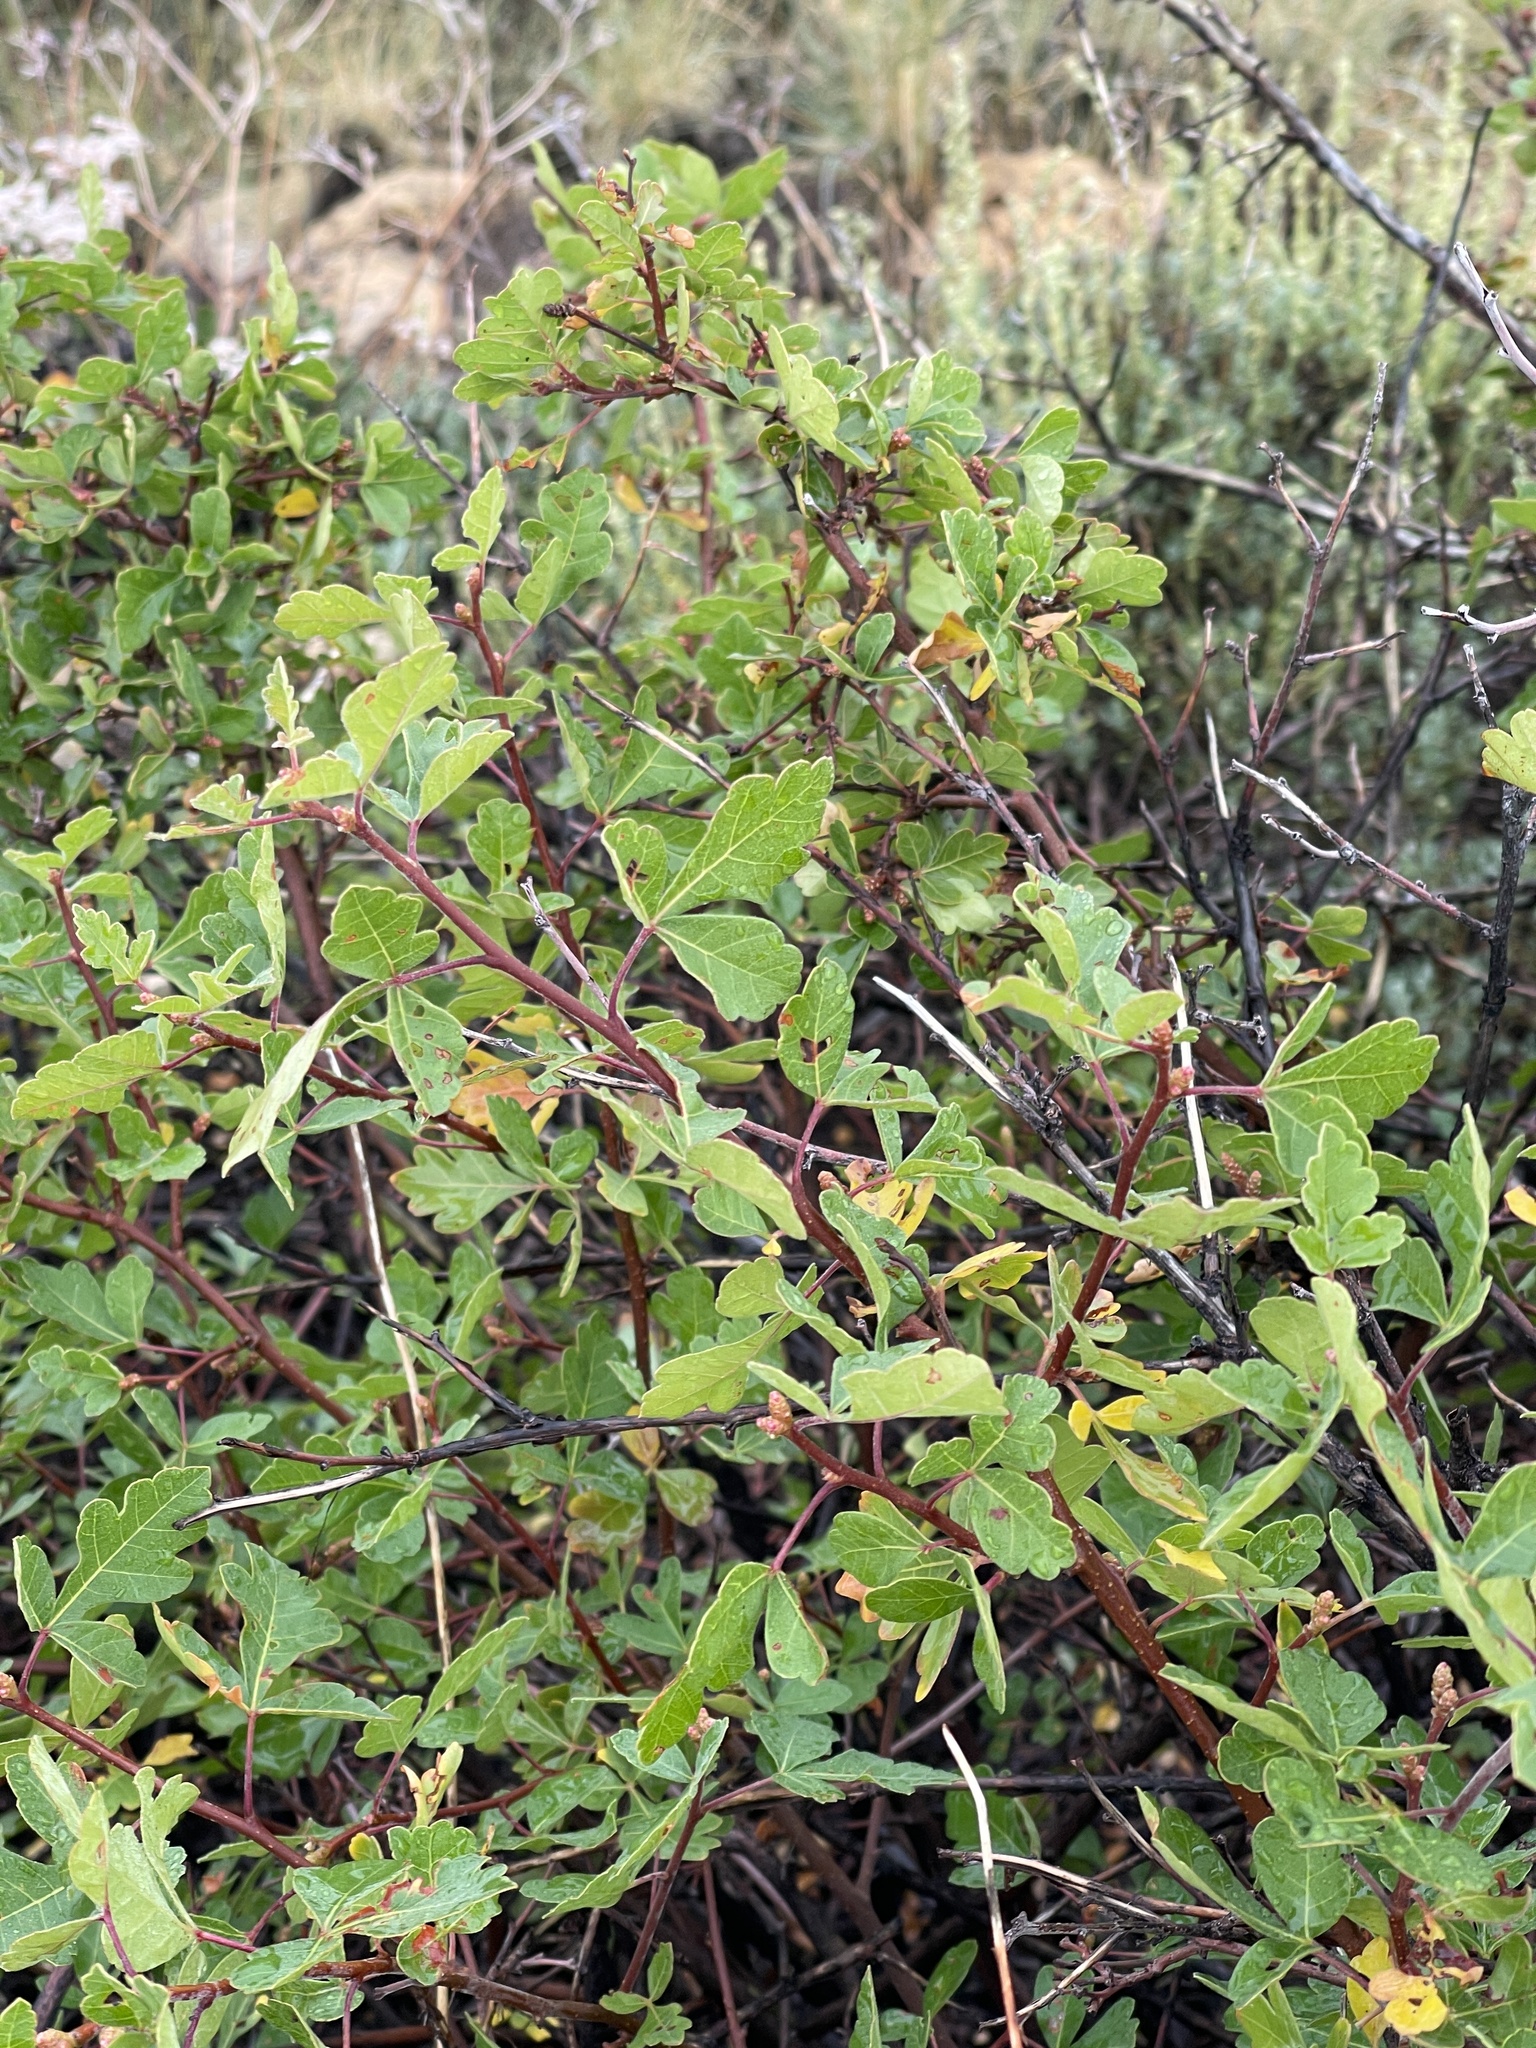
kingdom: Plantae
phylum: Tracheophyta
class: Magnoliopsida
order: Sapindales
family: Anacardiaceae
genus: Rhus
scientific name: Rhus aromatica
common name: Aromatic sumac
